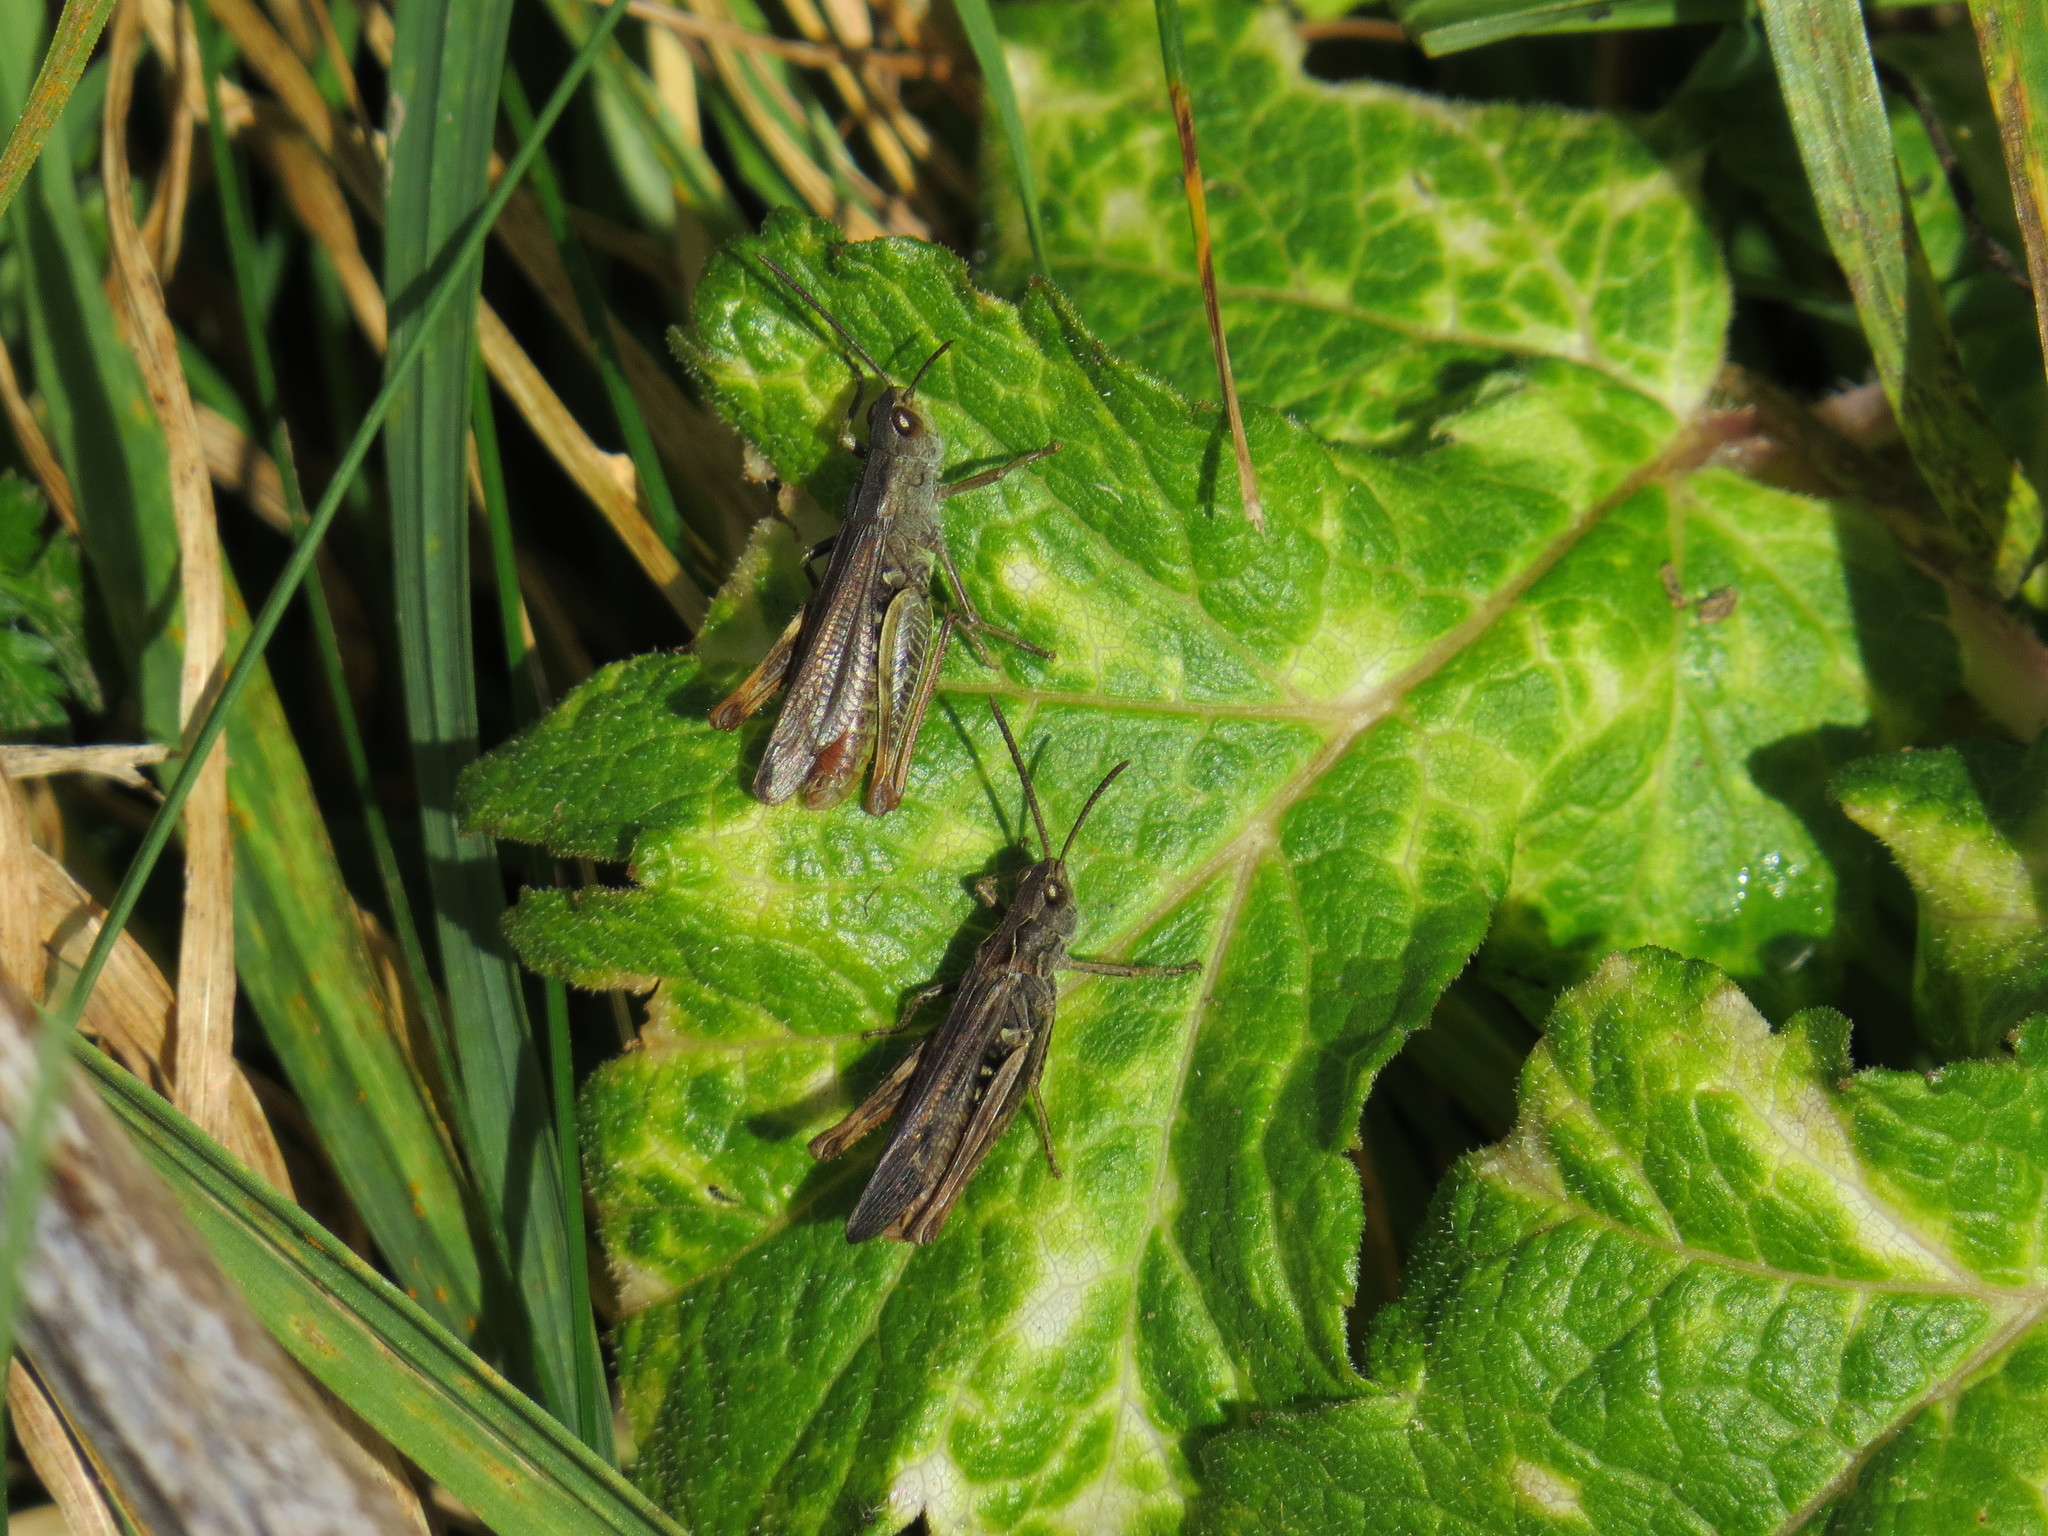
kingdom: Animalia
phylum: Arthropoda
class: Insecta
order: Orthoptera
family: Acrididae
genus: Chorthippus
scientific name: Chorthippus biguttulus
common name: Bow-winged grasshopper
